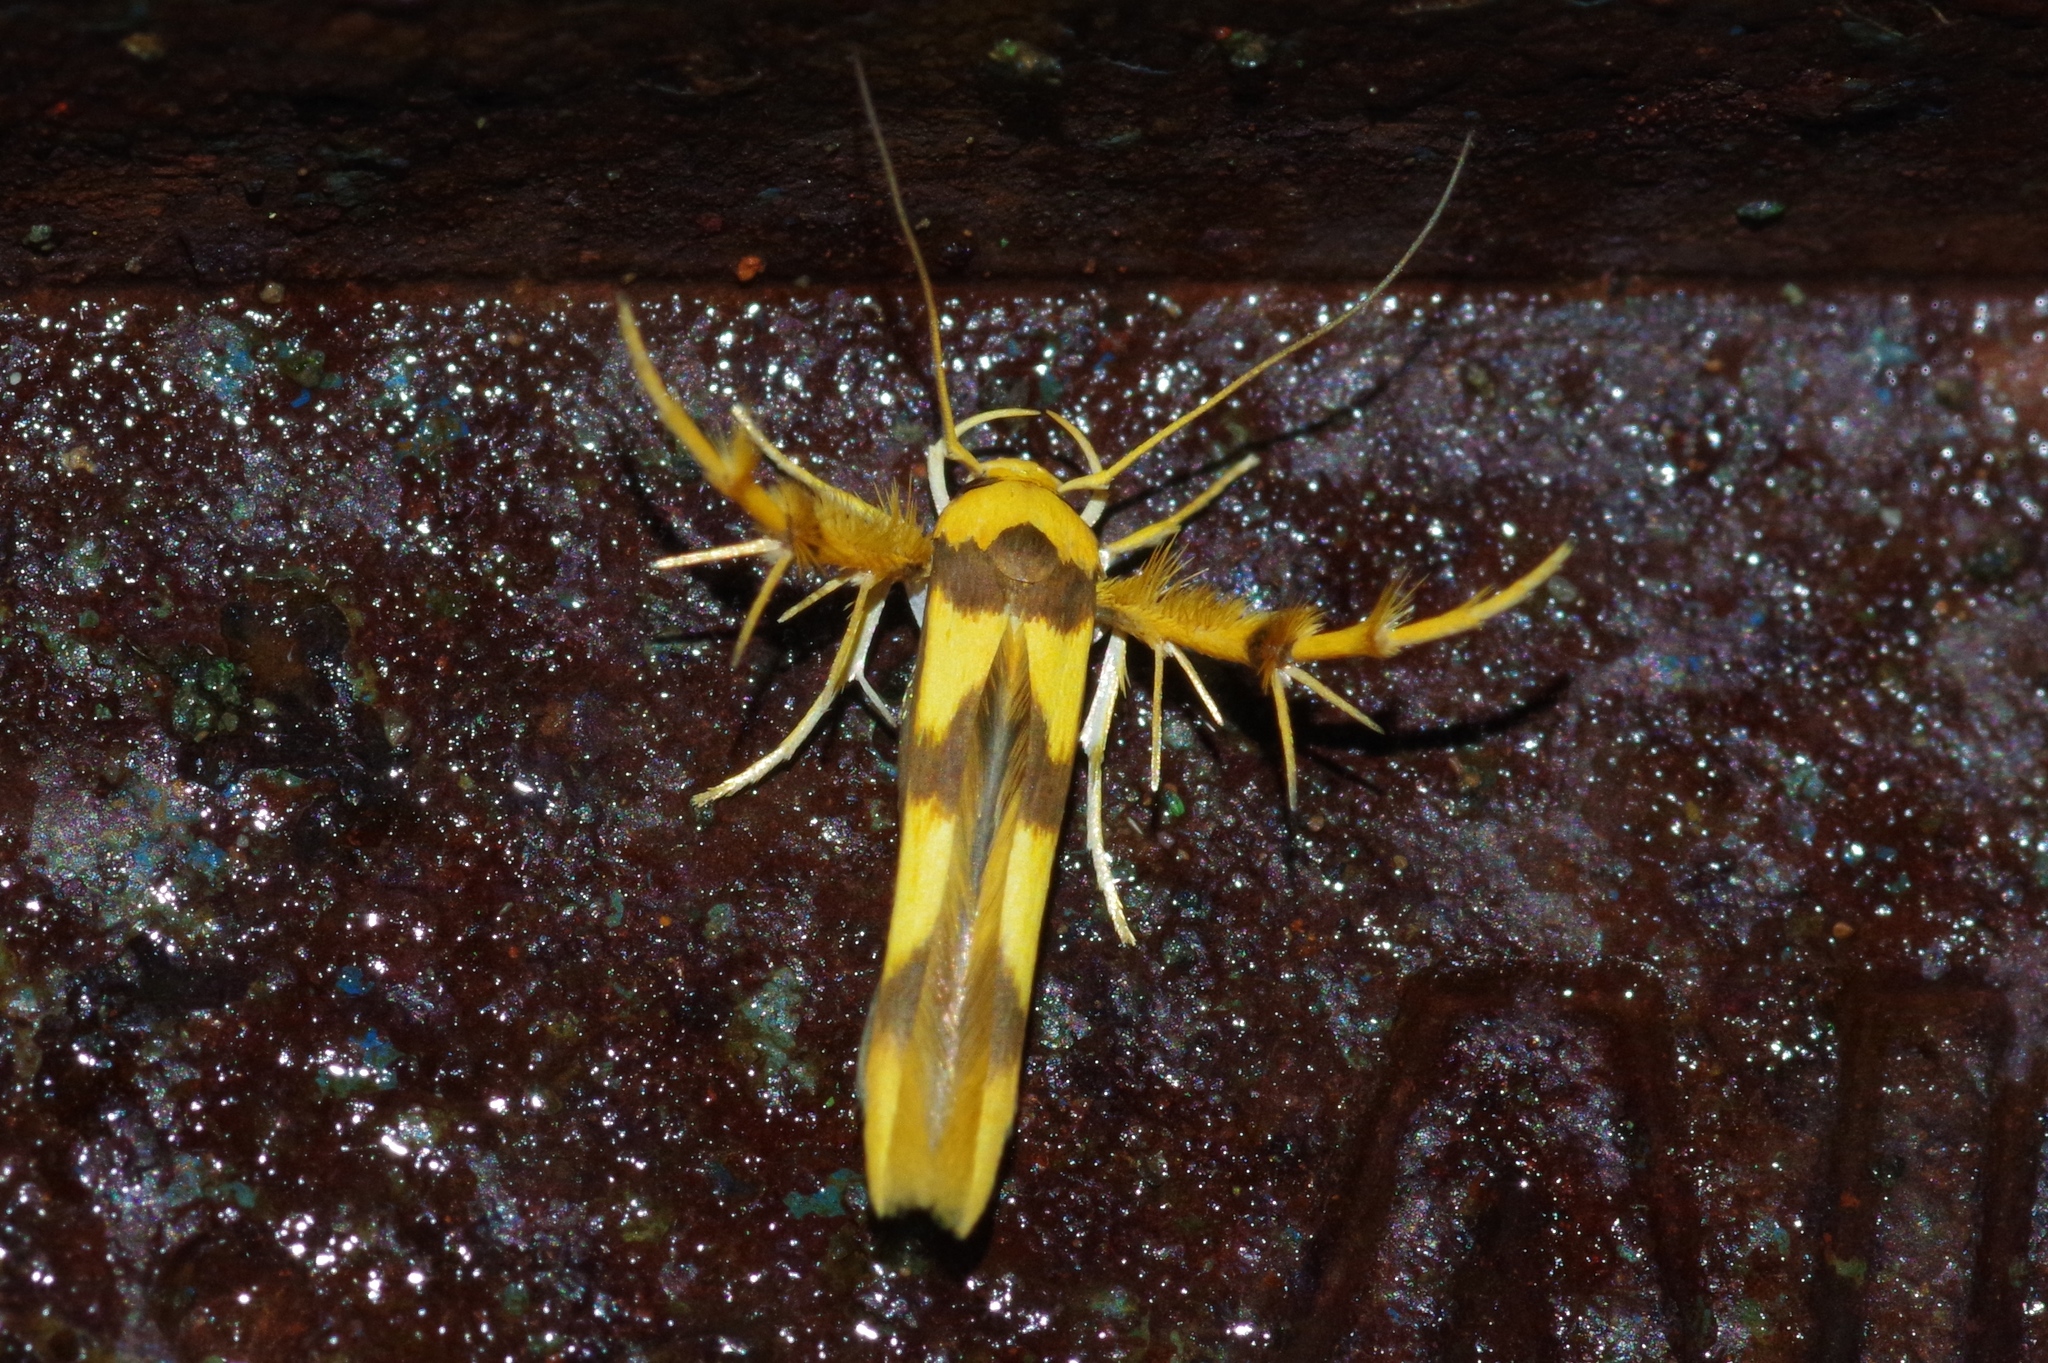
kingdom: Animalia
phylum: Arthropoda
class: Insecta
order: Lepidoptera
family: Stathmopodidae
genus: Stathmopoda
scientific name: Stathmopoda fusciumeraris
